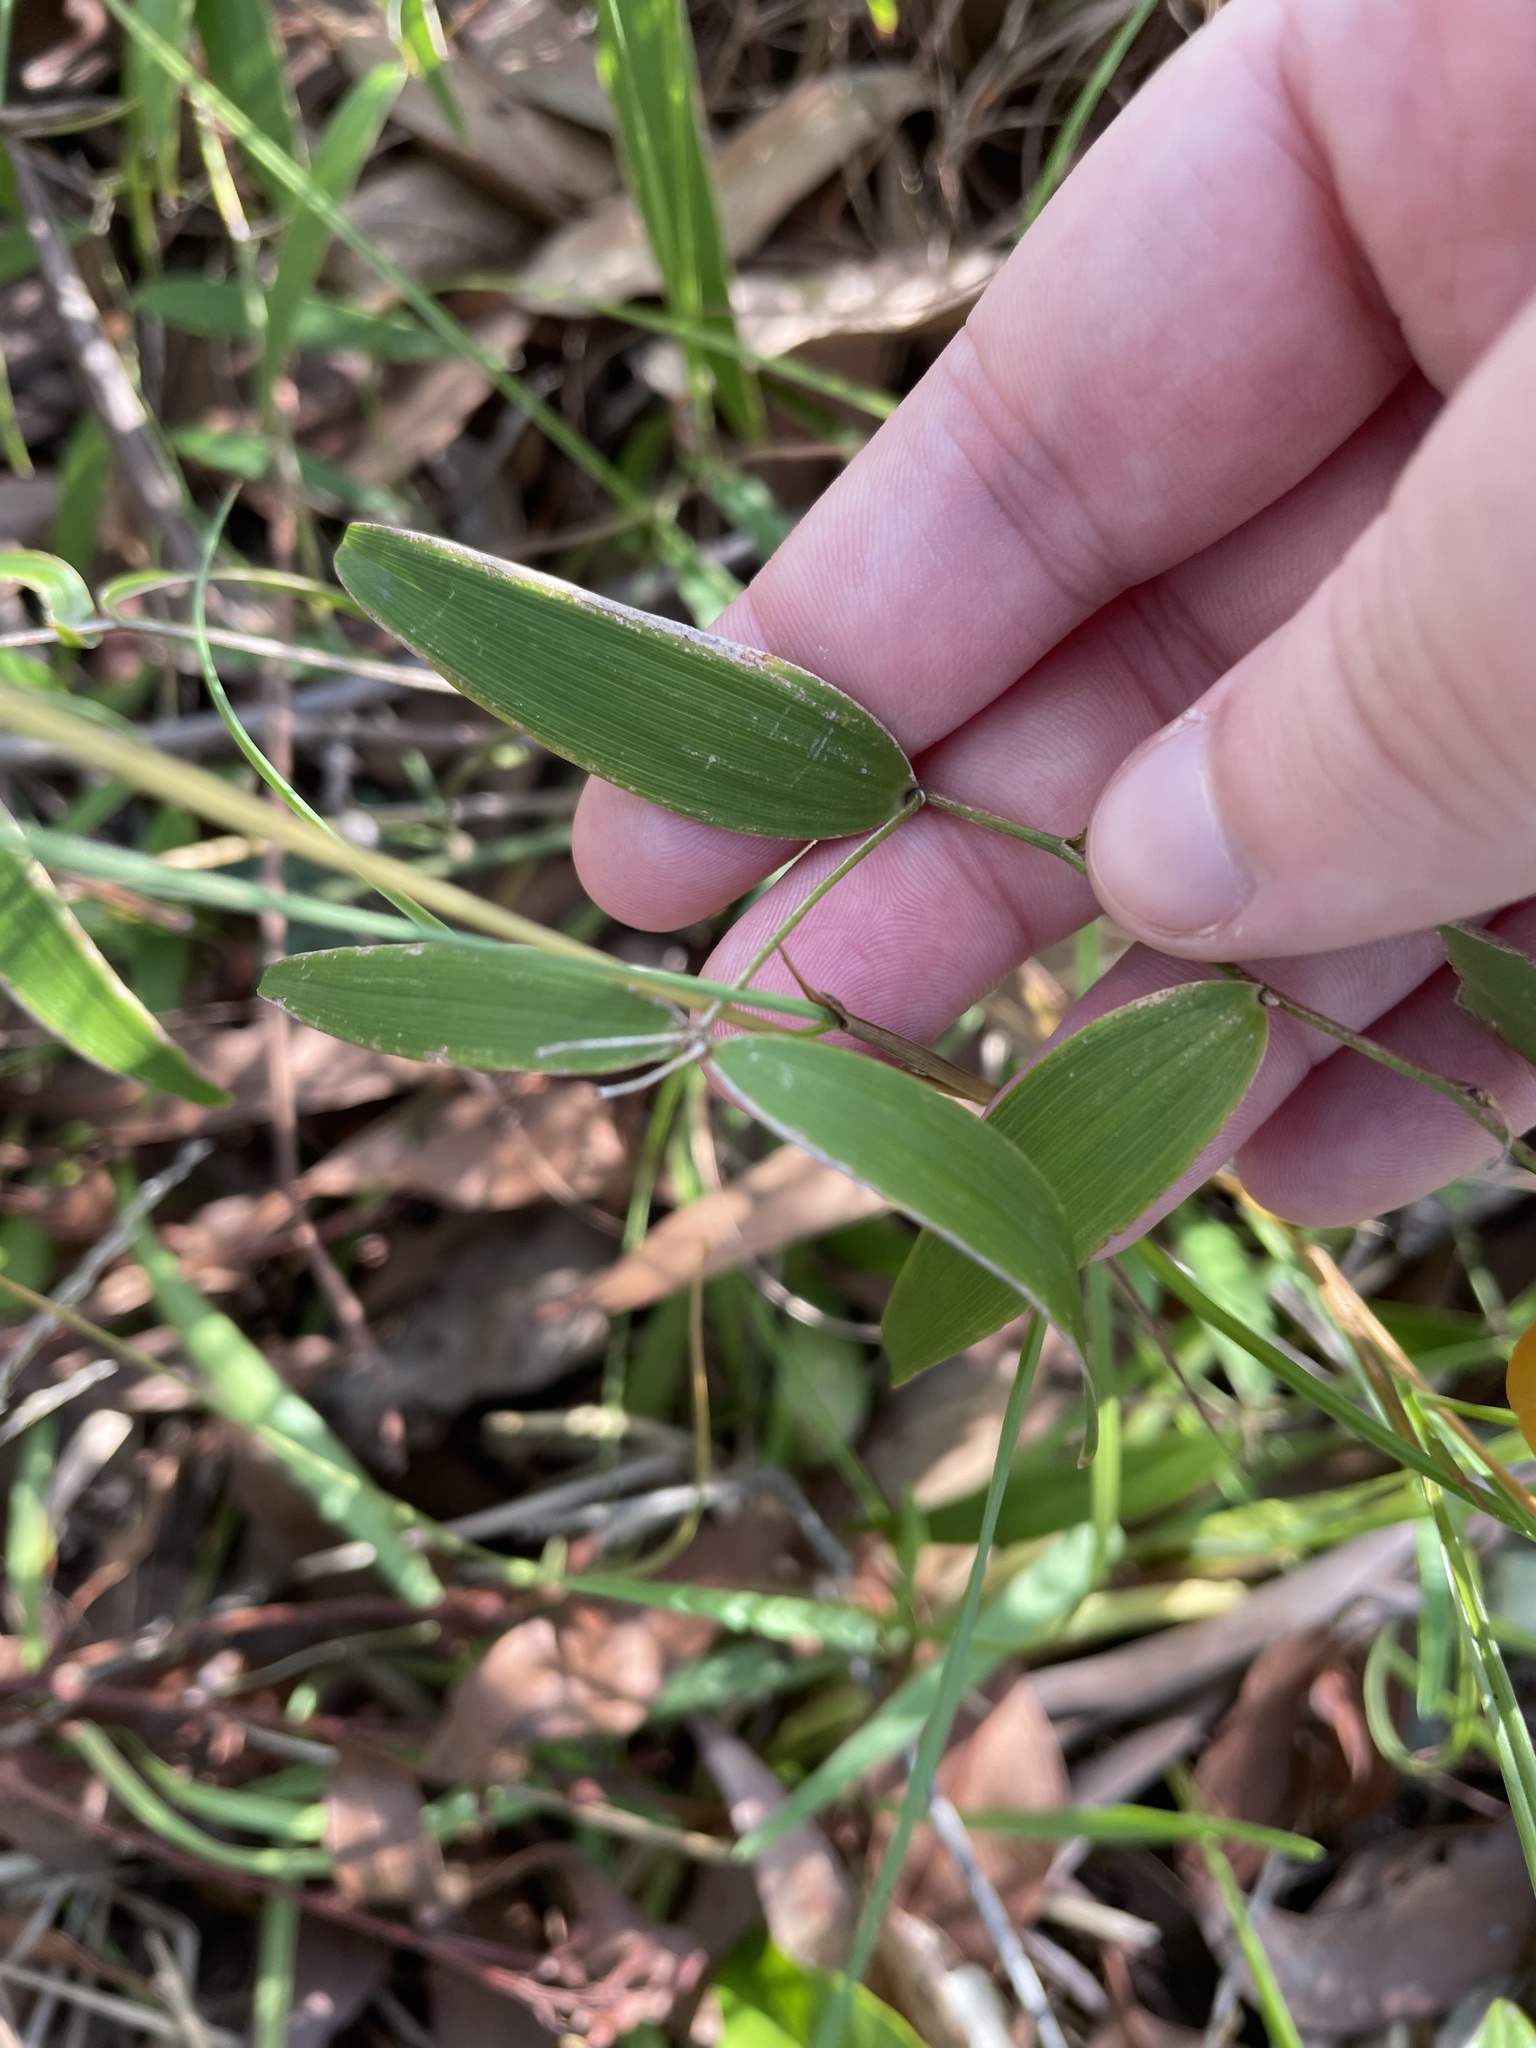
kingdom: Plantae
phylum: Tracheophyta
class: Liliopsida
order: Asparagales
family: Asparagaceae
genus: Eustrephus
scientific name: Eustrephus latifolius
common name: Orangevine
